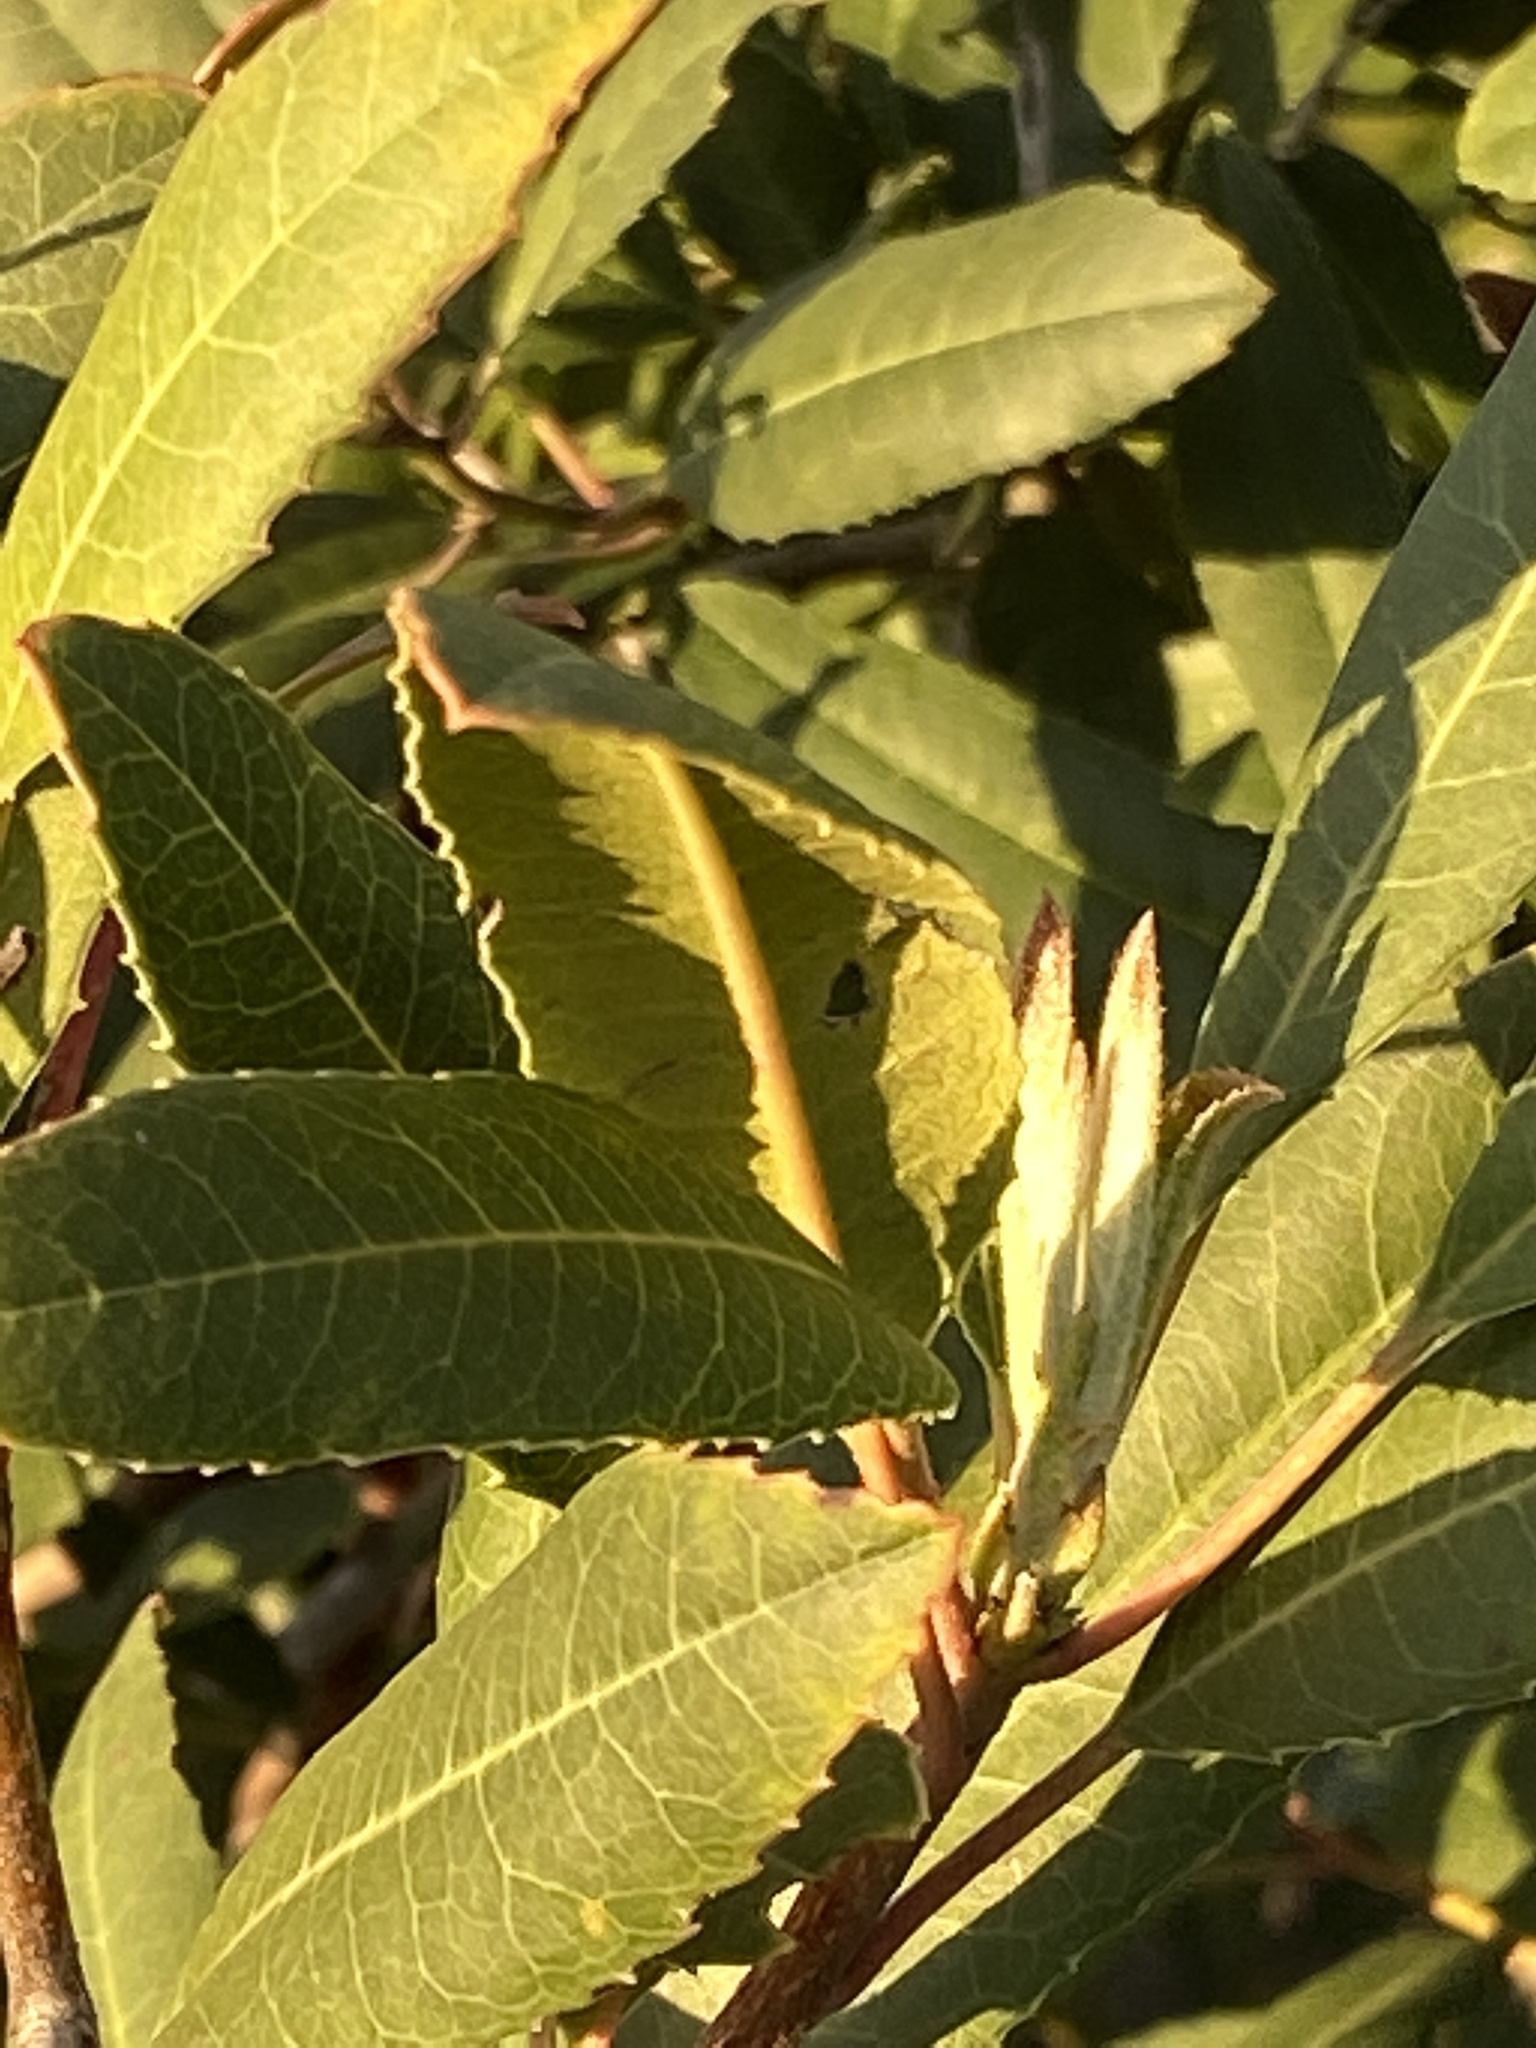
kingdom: Plantae
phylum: Tracheophyta
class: Magnoliopsida
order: Rosales
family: Rosaceae
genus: Heteromeles
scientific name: Heteromeles arbutifolia
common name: California-holly
